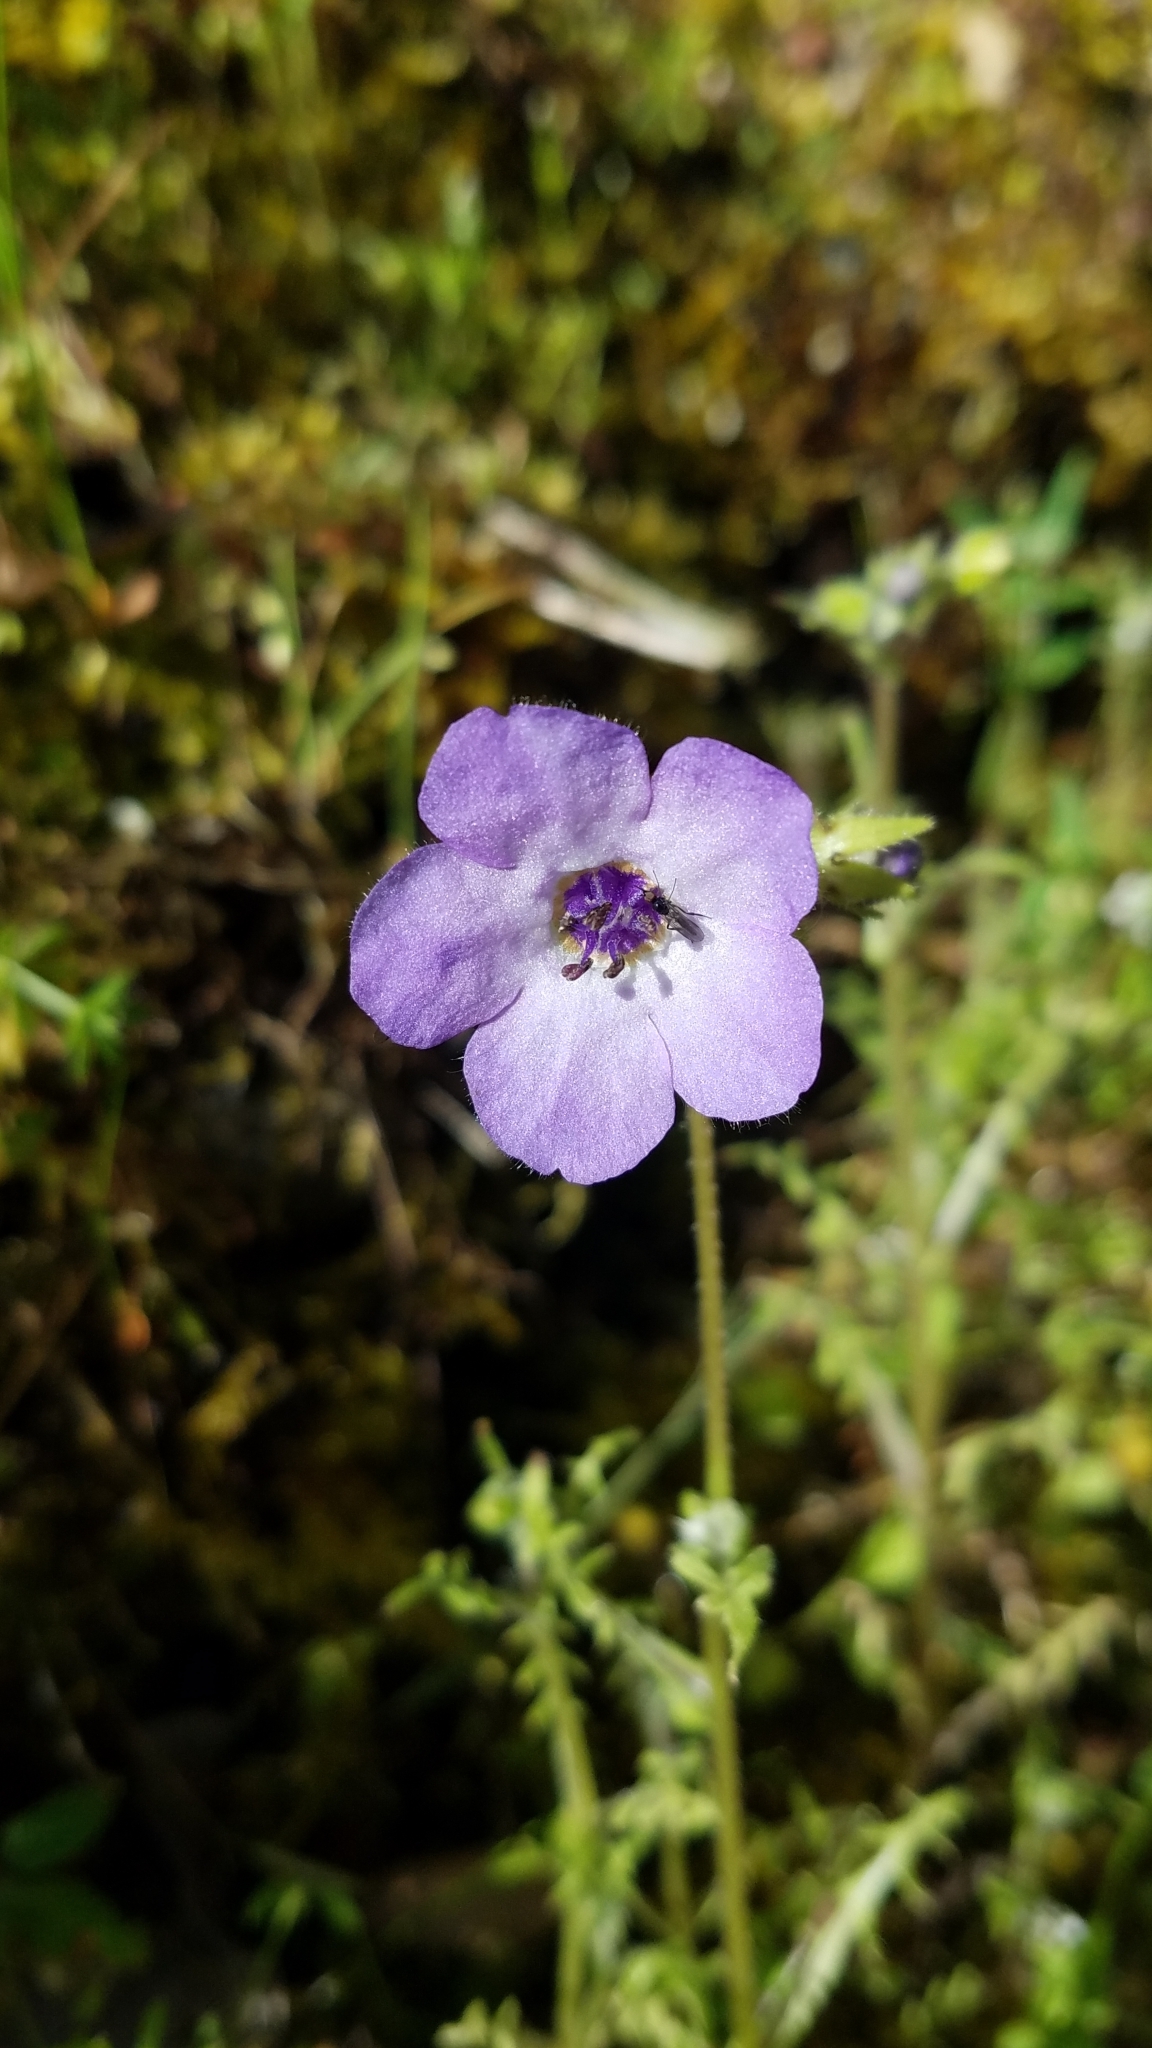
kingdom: Plantae
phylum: Tracheophyta
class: Magnoliopsida
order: Boraginales
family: Hydrophyllaceae
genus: Pholistoma
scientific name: Pholistoma auritum
